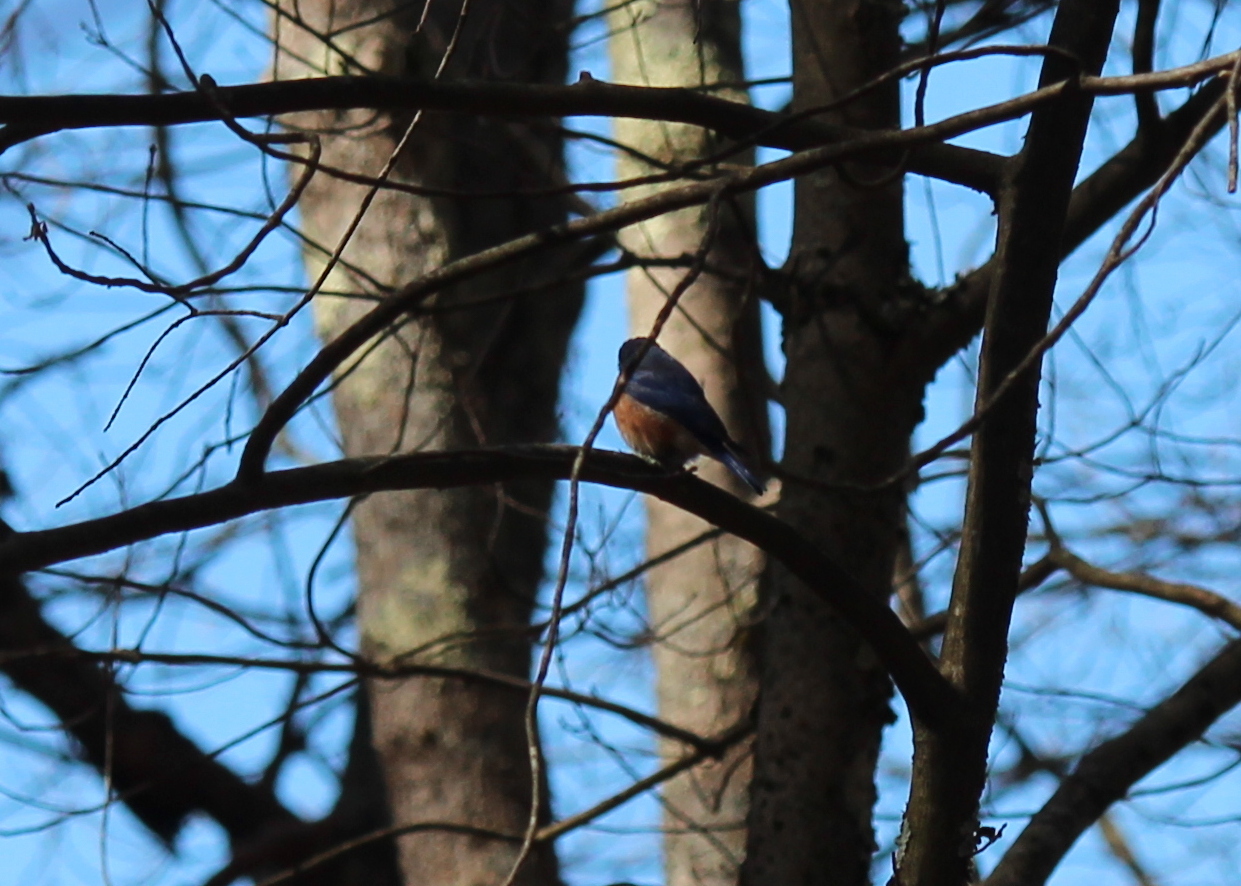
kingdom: Animalia
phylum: Chordata
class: Aves
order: Passeriformes
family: Turdidae
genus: Sialia
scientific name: Sialia sialis
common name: Eastern bluebird
